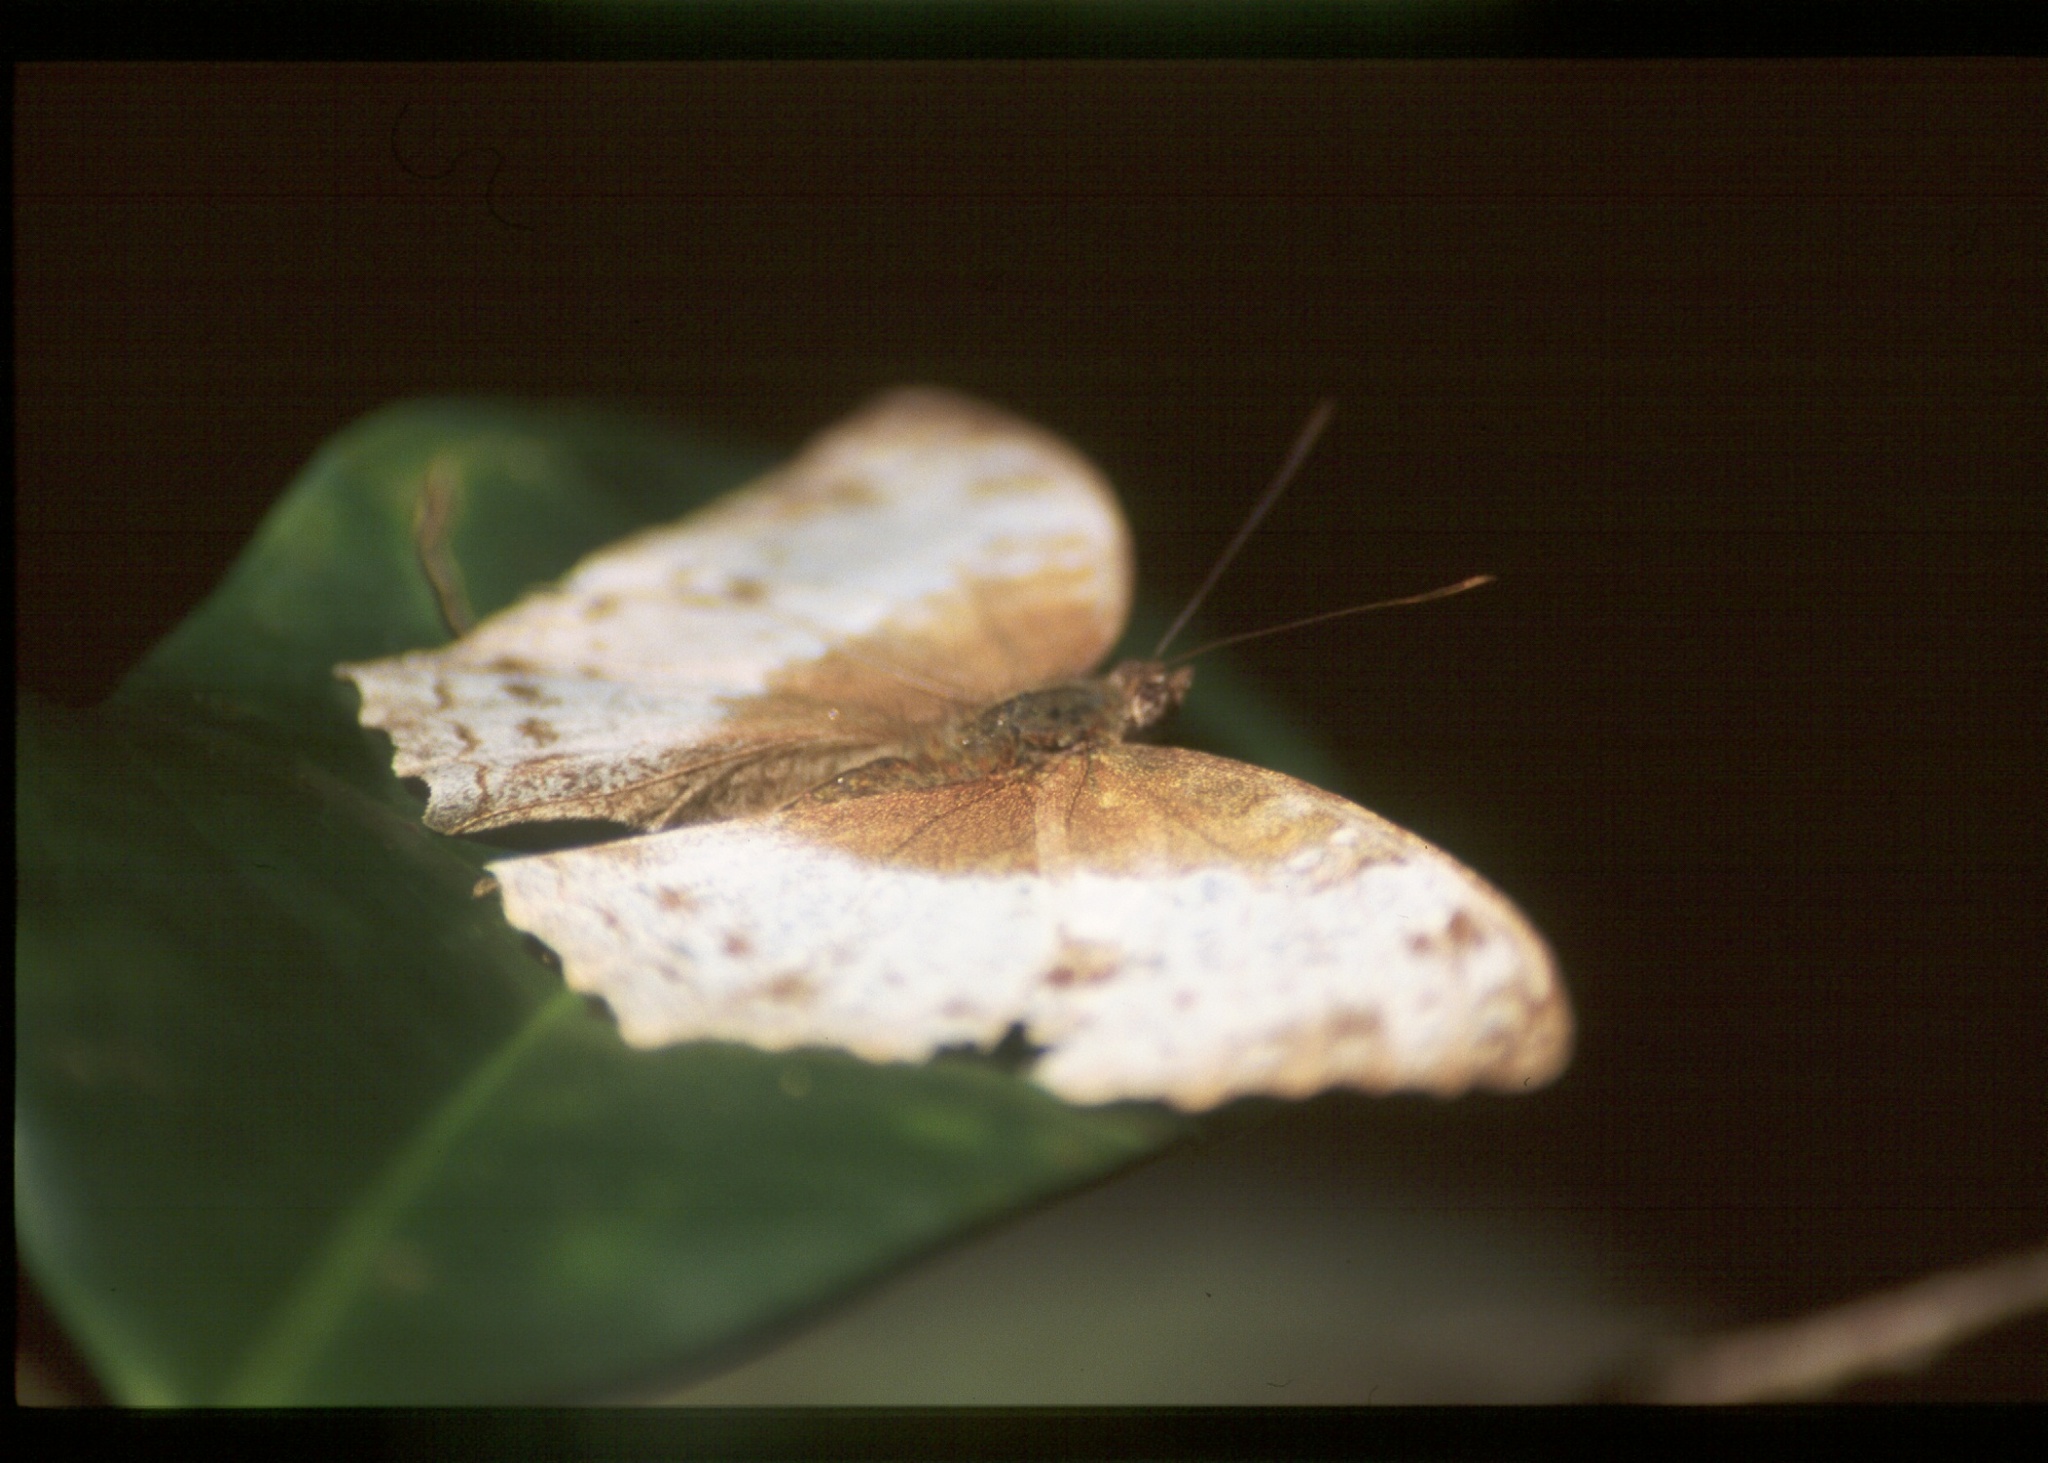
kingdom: Animalia
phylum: Arthropoda
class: Insecta
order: Lepidoptera
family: Nymphalidae
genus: Cymothoe
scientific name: Cymothoe
